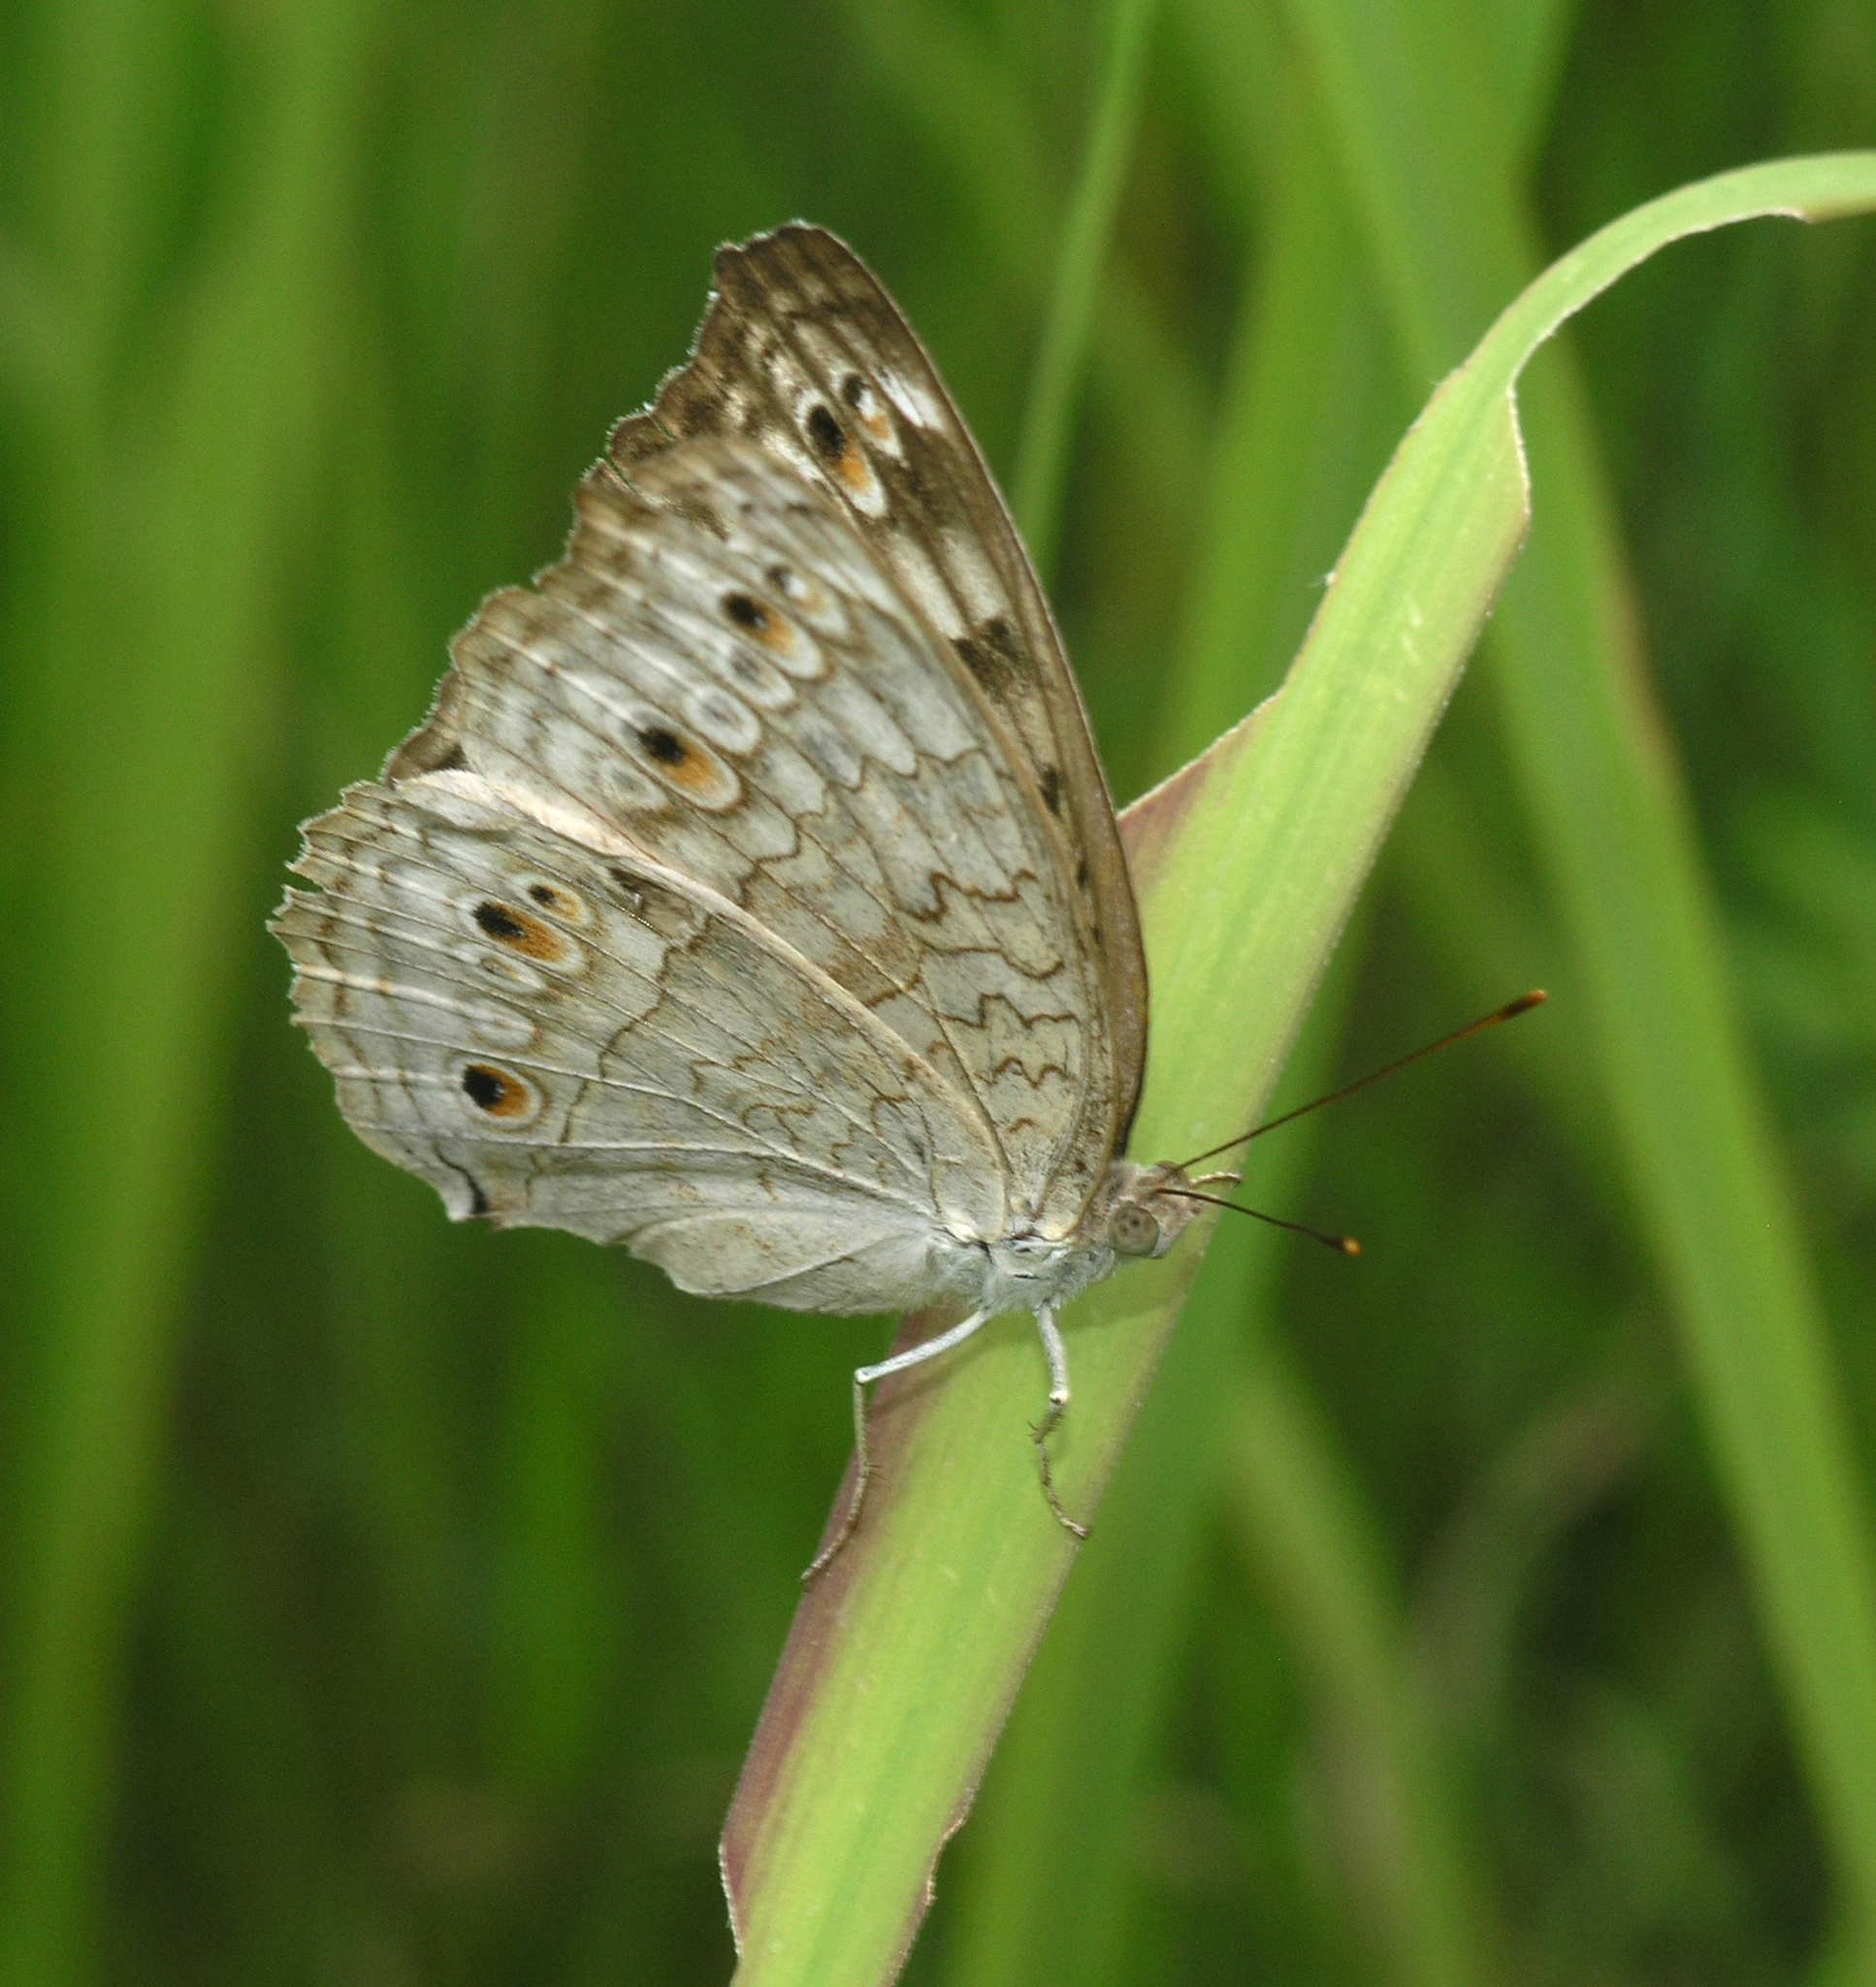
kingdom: Animalia
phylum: Arthropoda
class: Insecta
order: Lepidoptera
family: Nymphalidae
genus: Junonia
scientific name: Junonia atlites
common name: Grey pansy
